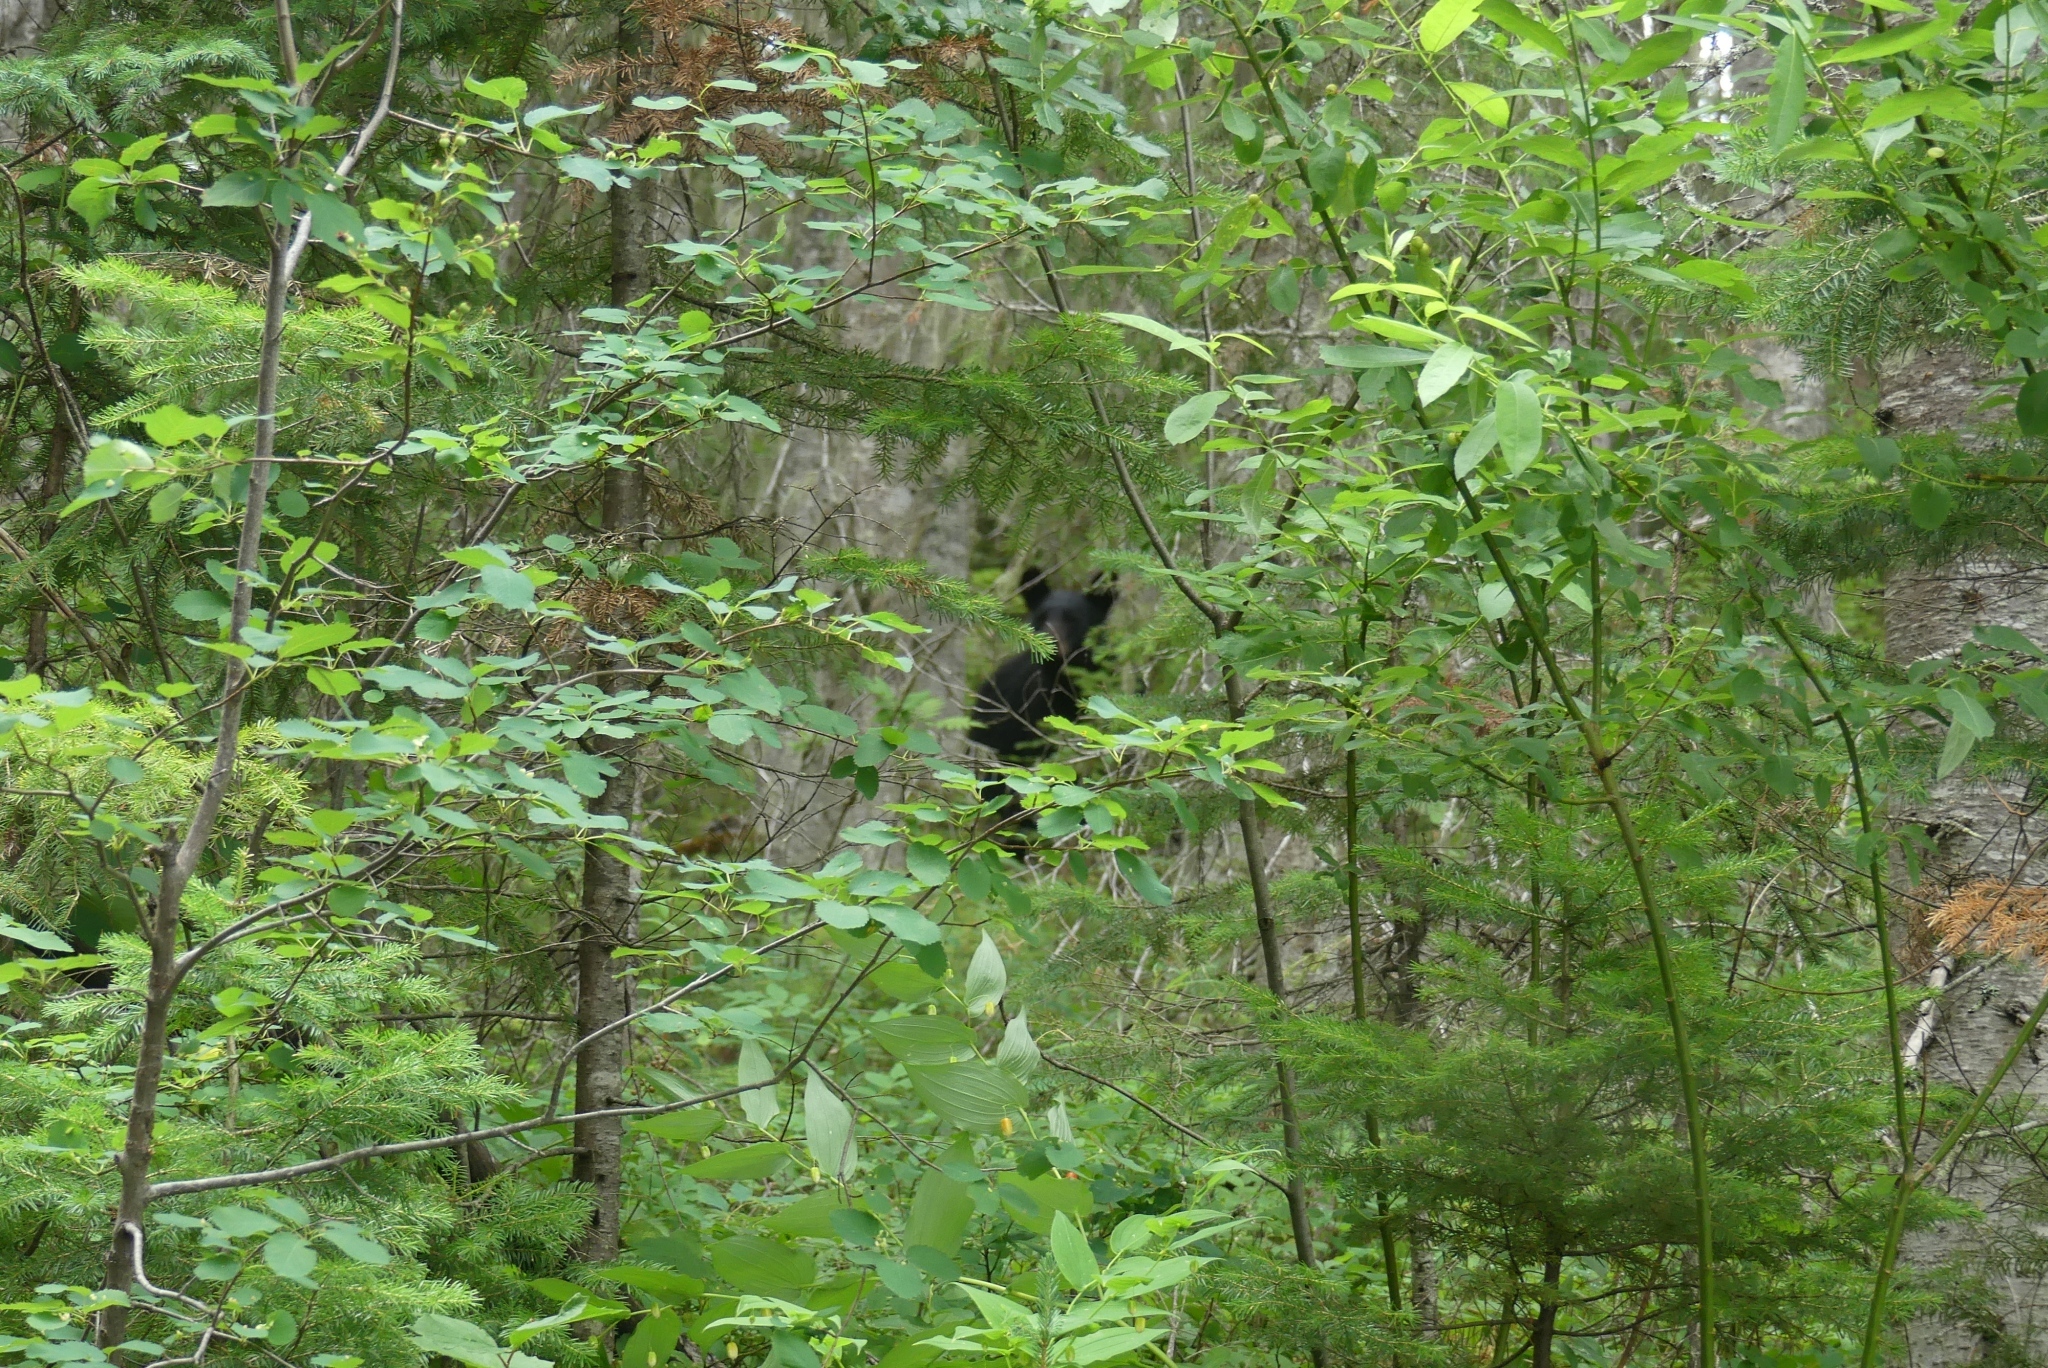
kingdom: Animalia
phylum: Chordata
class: Mammalia
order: Carnivora
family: Ursidae
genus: Ursus
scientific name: Ursus americanus
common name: American black bear
